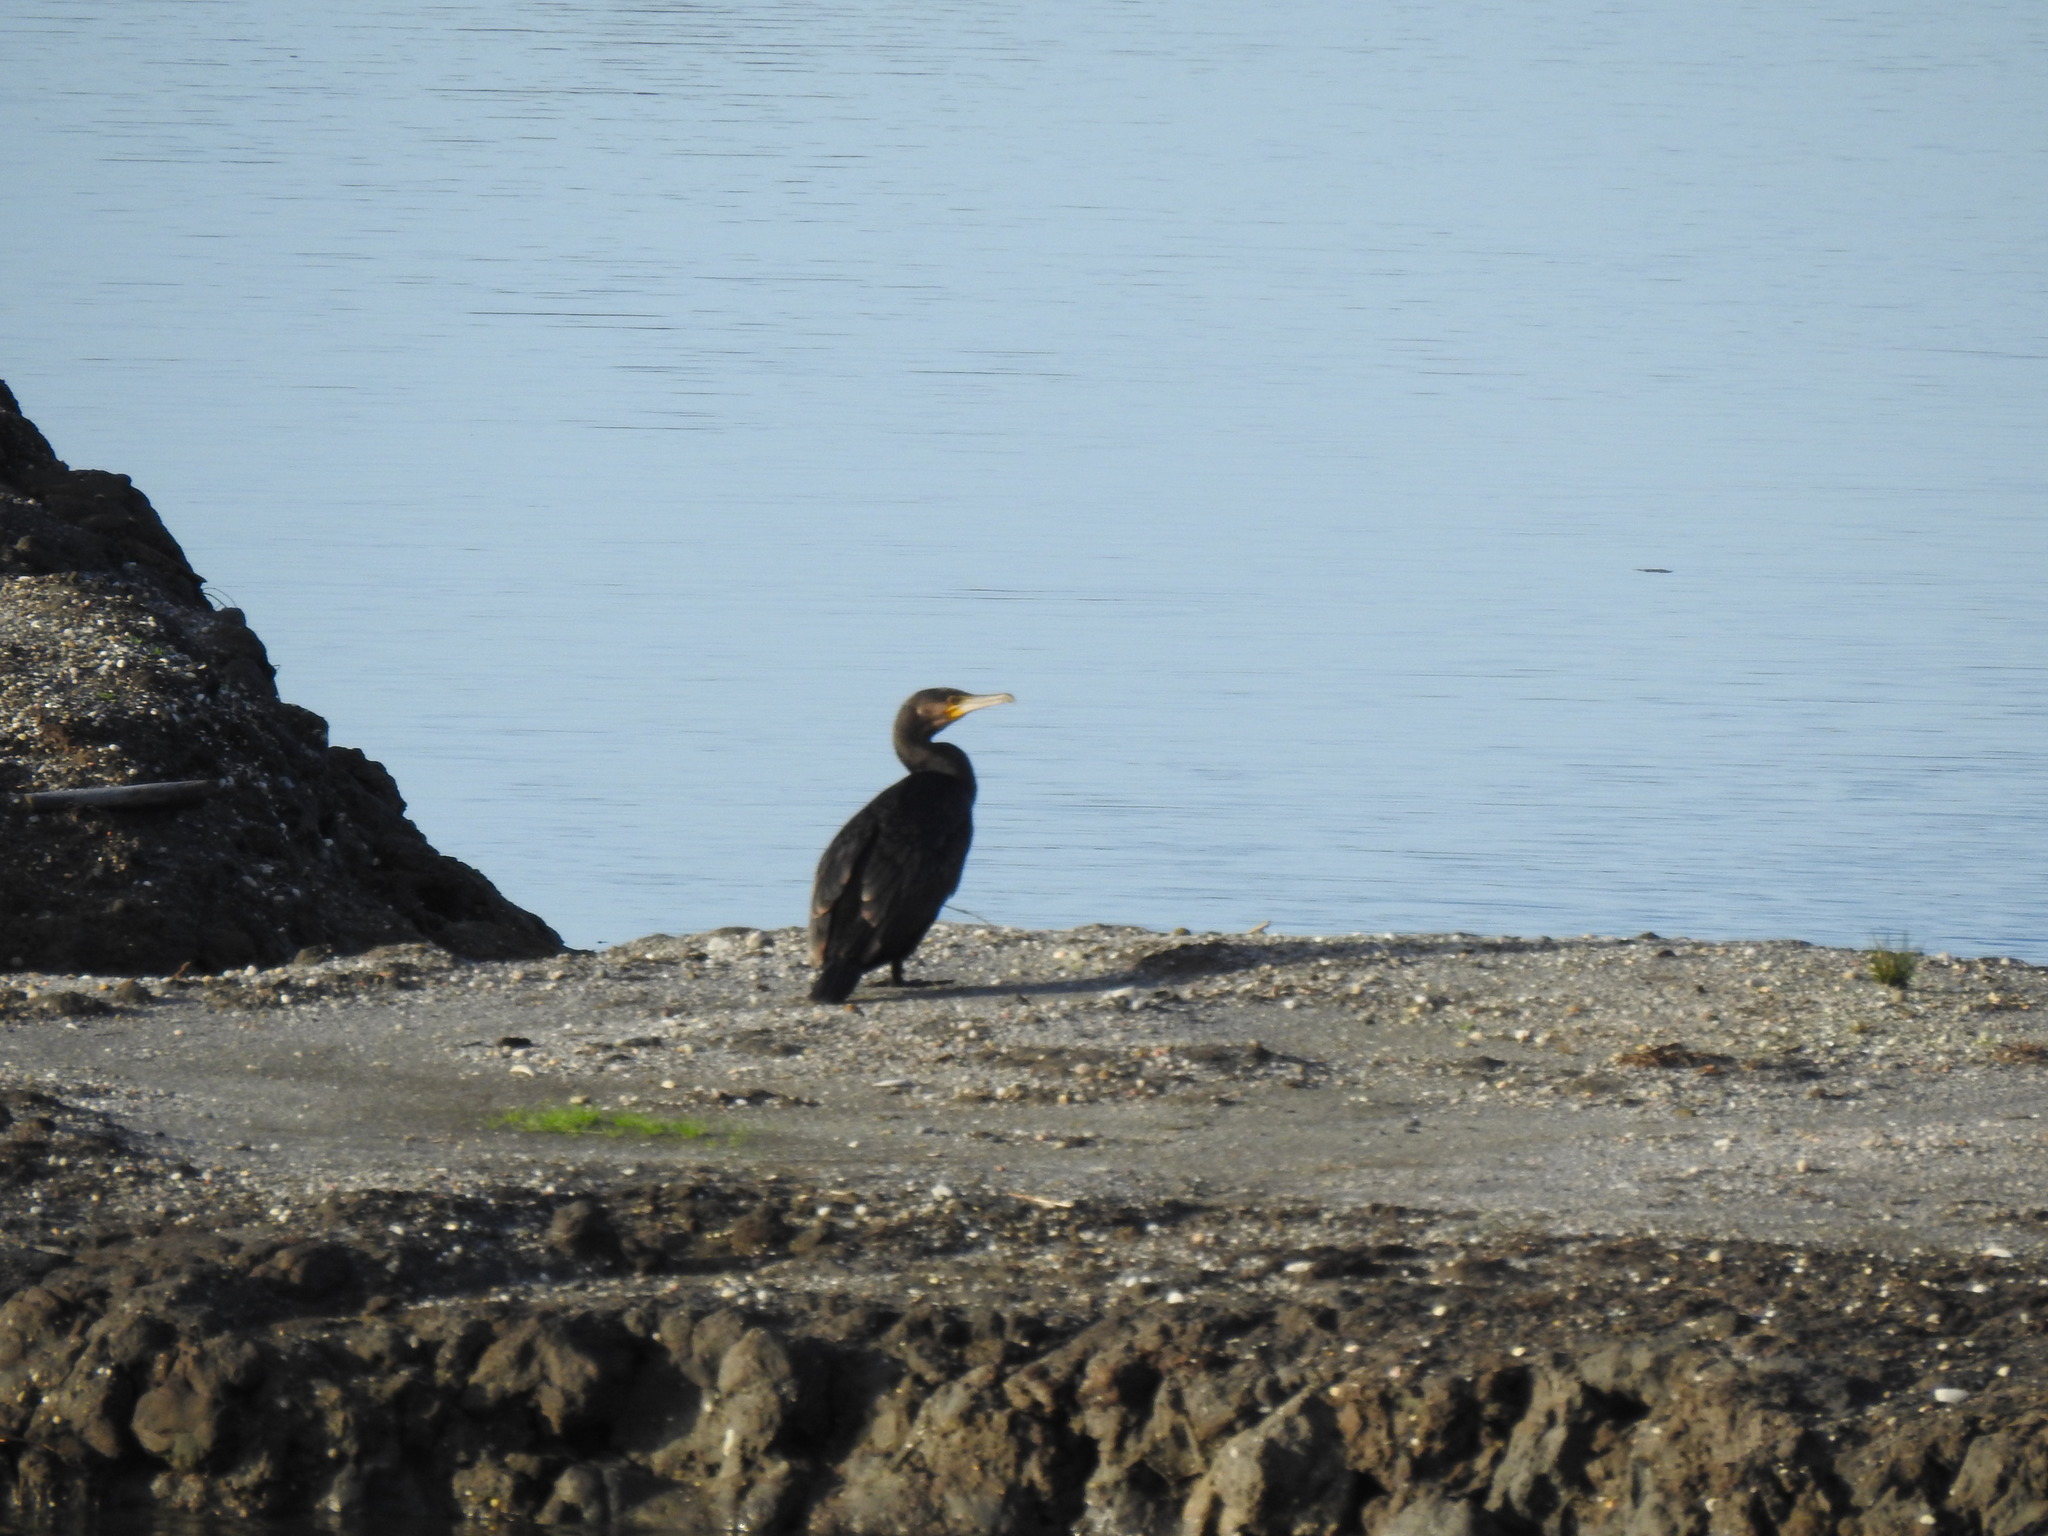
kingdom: Animalia
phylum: Chordata
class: Aves
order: Suliformes
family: Phalacrocoracidae
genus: Phalacrocorax
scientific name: Phalacrocorax carbo
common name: Great cormorant
